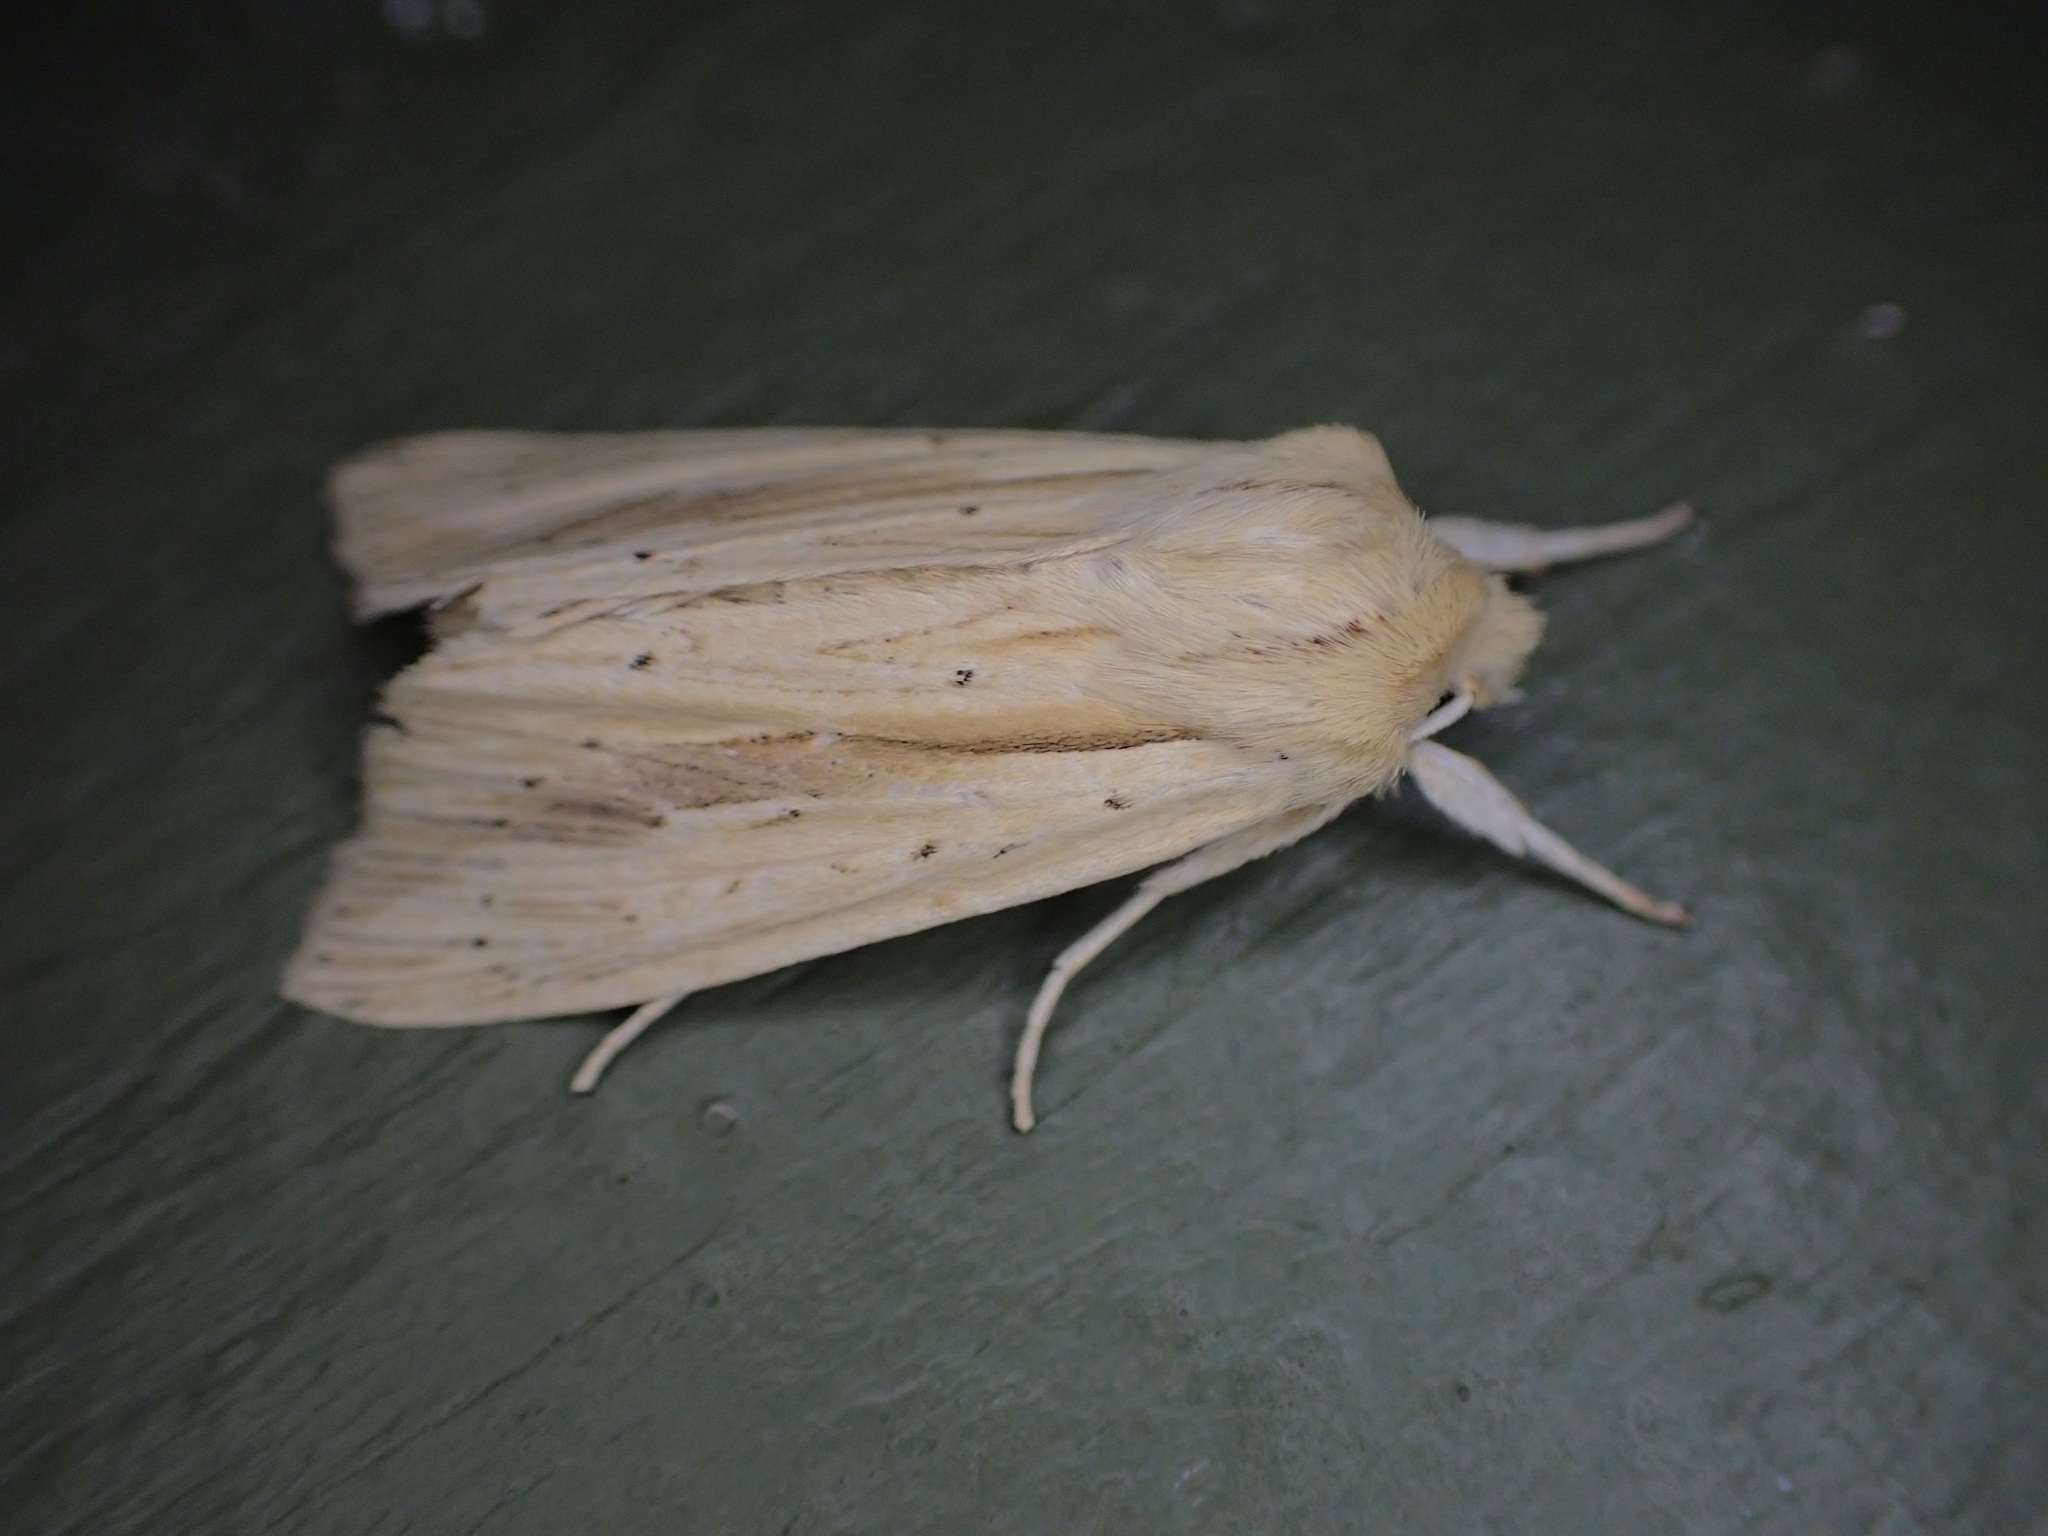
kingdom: Animalia
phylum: Arthropoda
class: Insecta
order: Lepidoptera
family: Noctuidae
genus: Ichneutica
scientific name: Ichneutica semivittata
